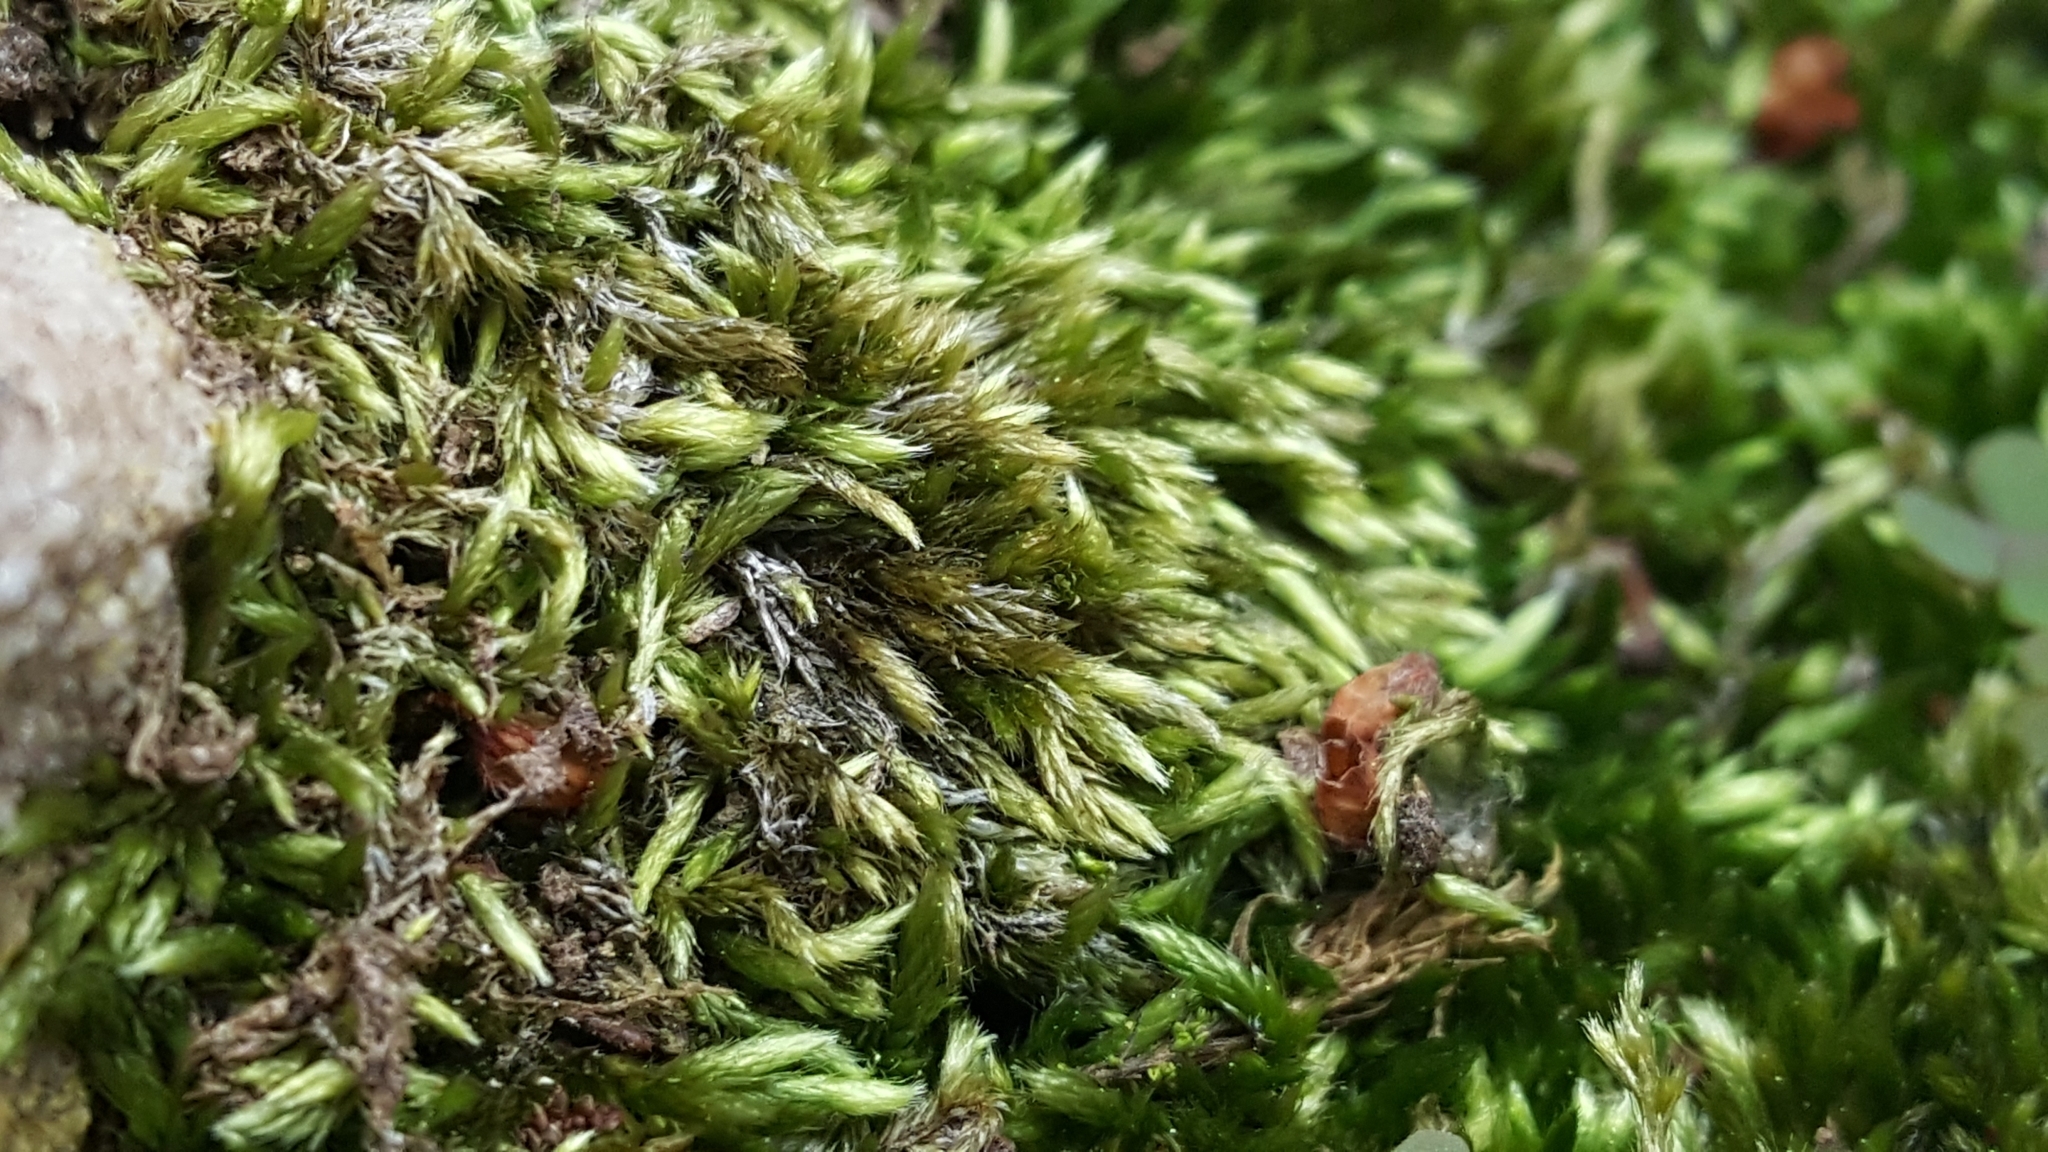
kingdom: Plantae
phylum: Bryophyta
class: Bryopsida
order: Hypnales
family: Fabroniaceae
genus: Ischyrodon
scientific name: Ischyrodon lepturus
